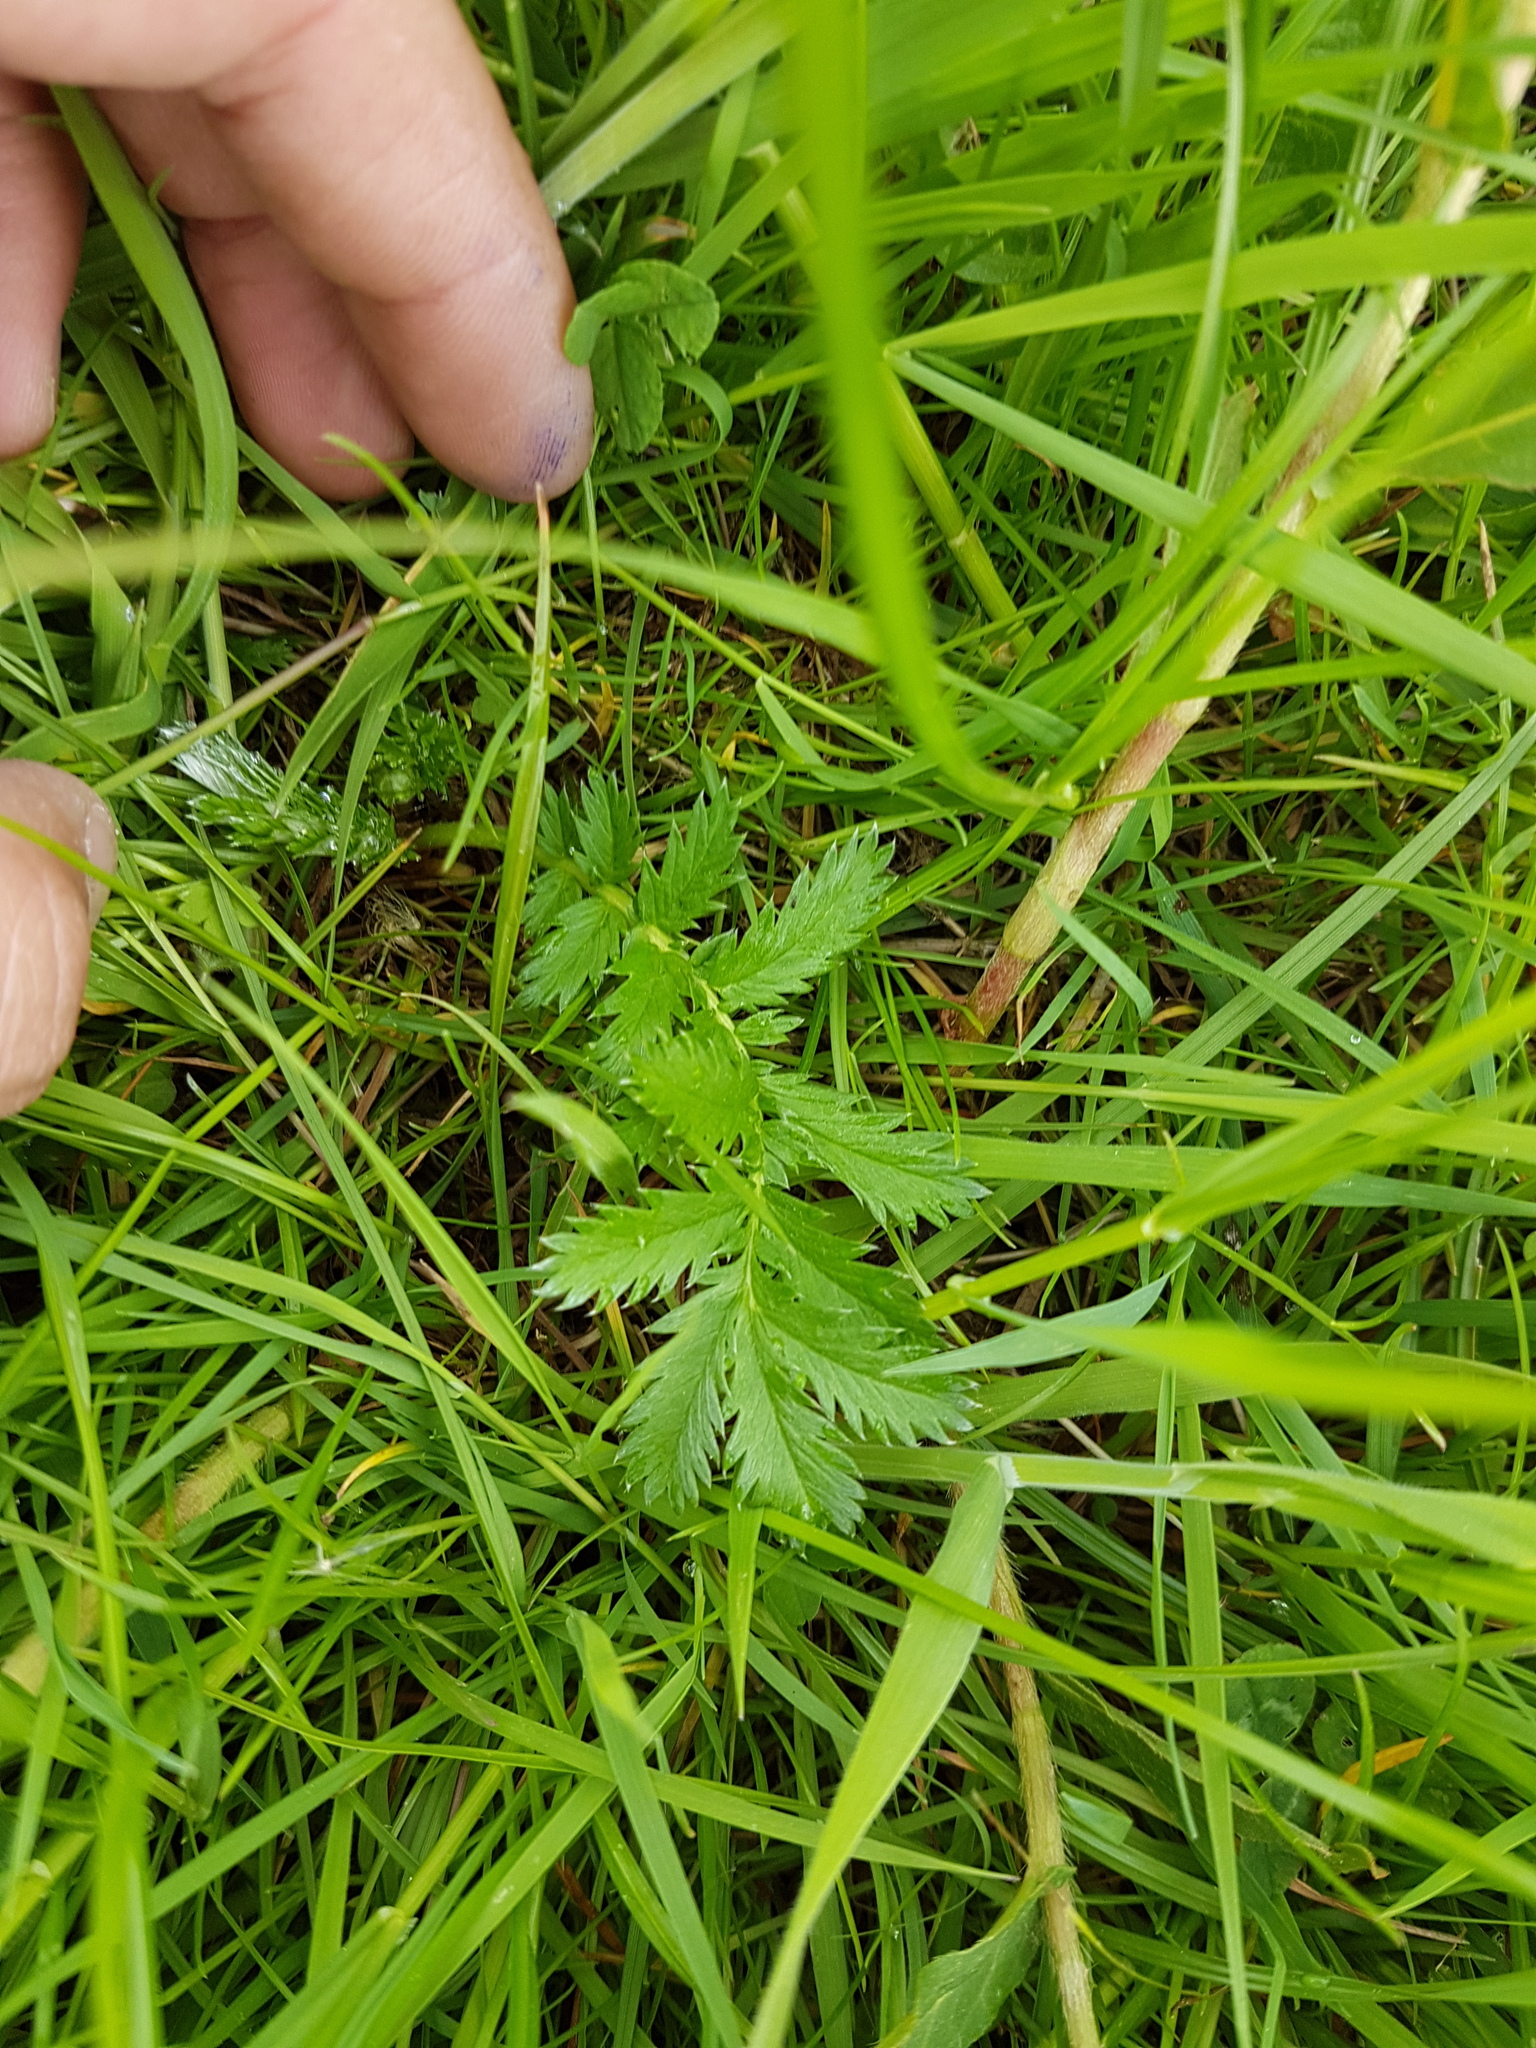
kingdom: Plantae
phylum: Tracheophyta
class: Magnoliopsida
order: Rosales
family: Rosaceae
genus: Argentina
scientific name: Argentina anserina
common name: Common silverweed
